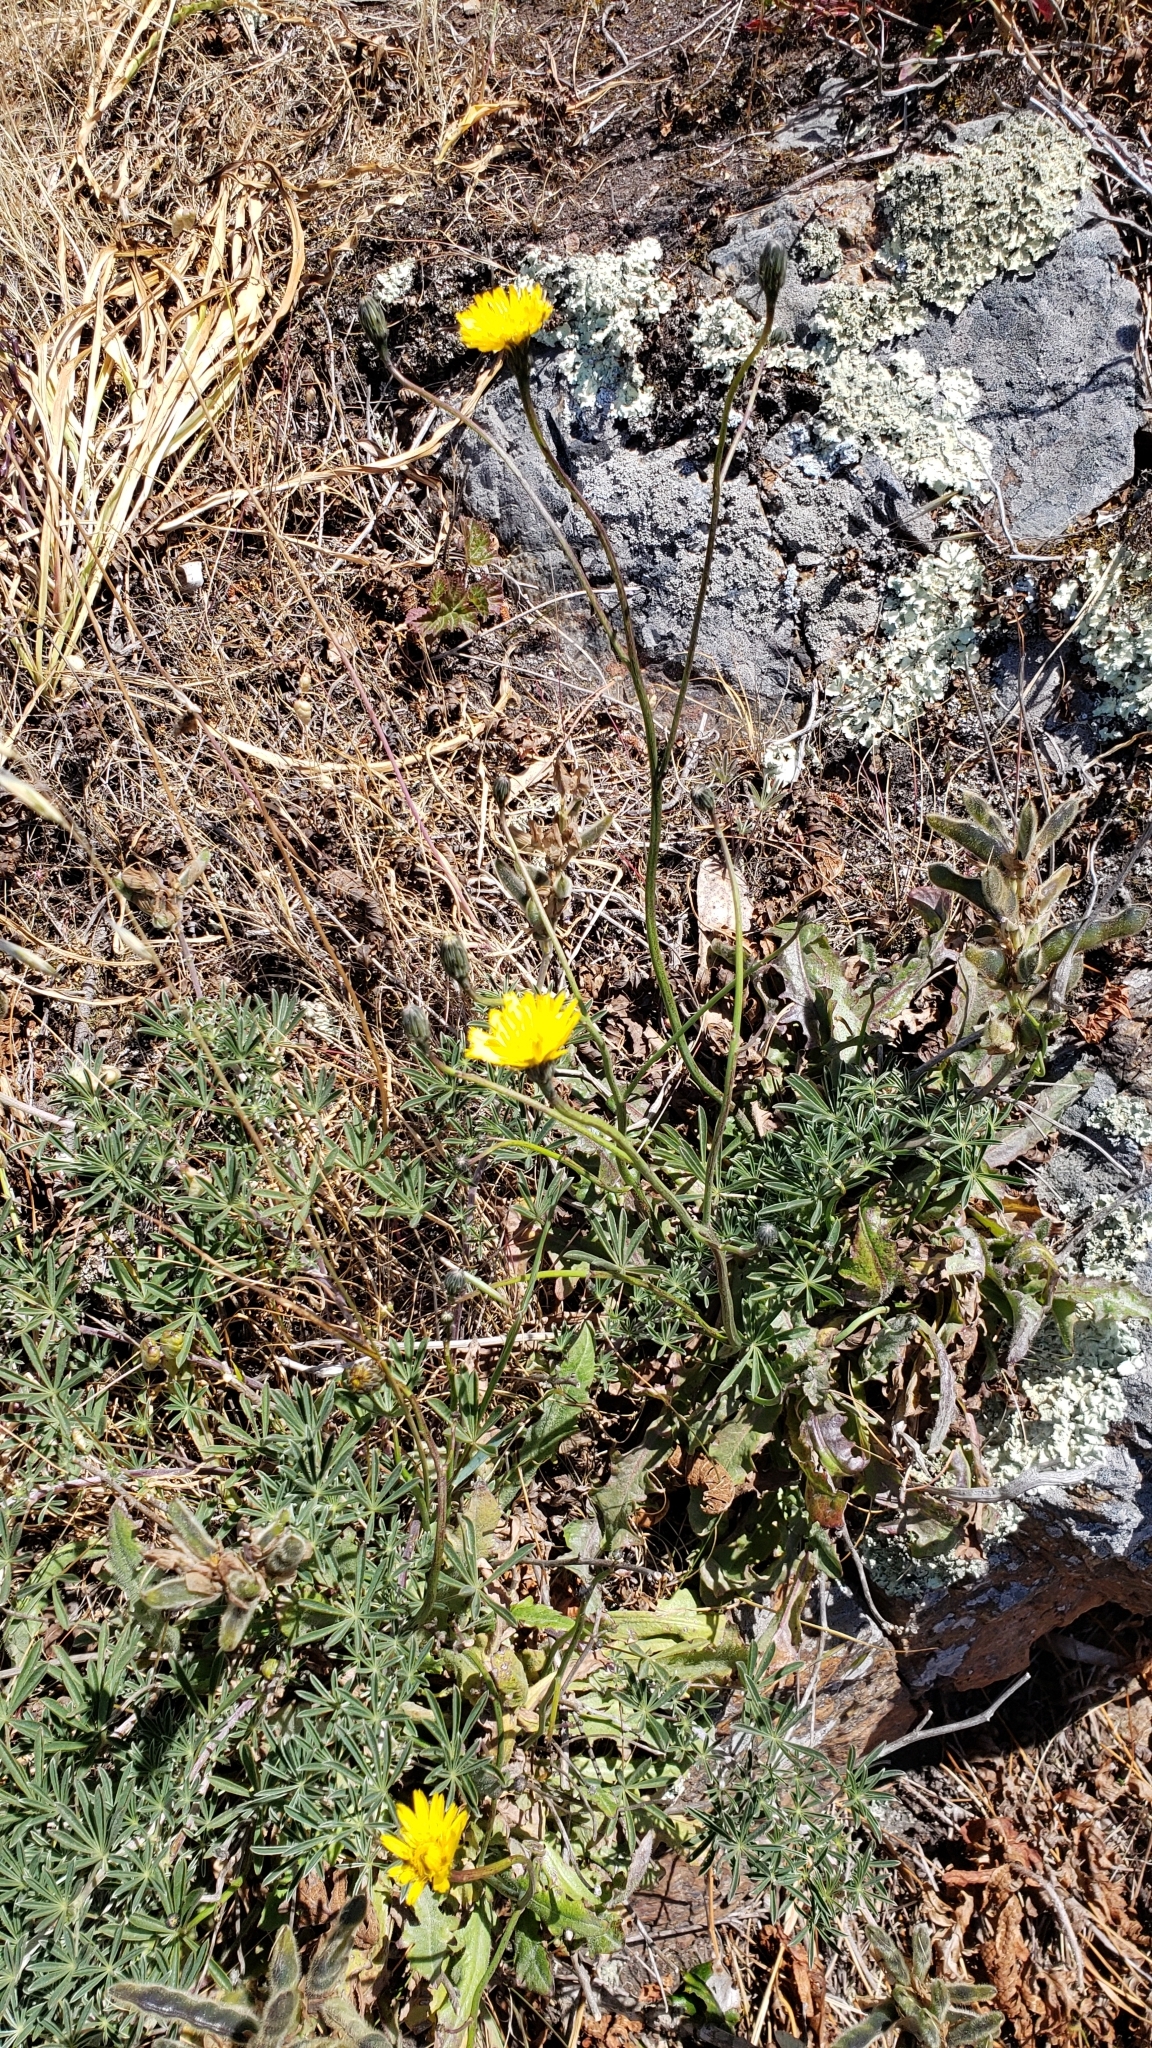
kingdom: Plantae
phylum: Tracheophyta
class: Magnoliopsida
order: Asterales
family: Asteraceae
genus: Hypochaeris
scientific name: Hypochaeris radicata
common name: Flatweed
